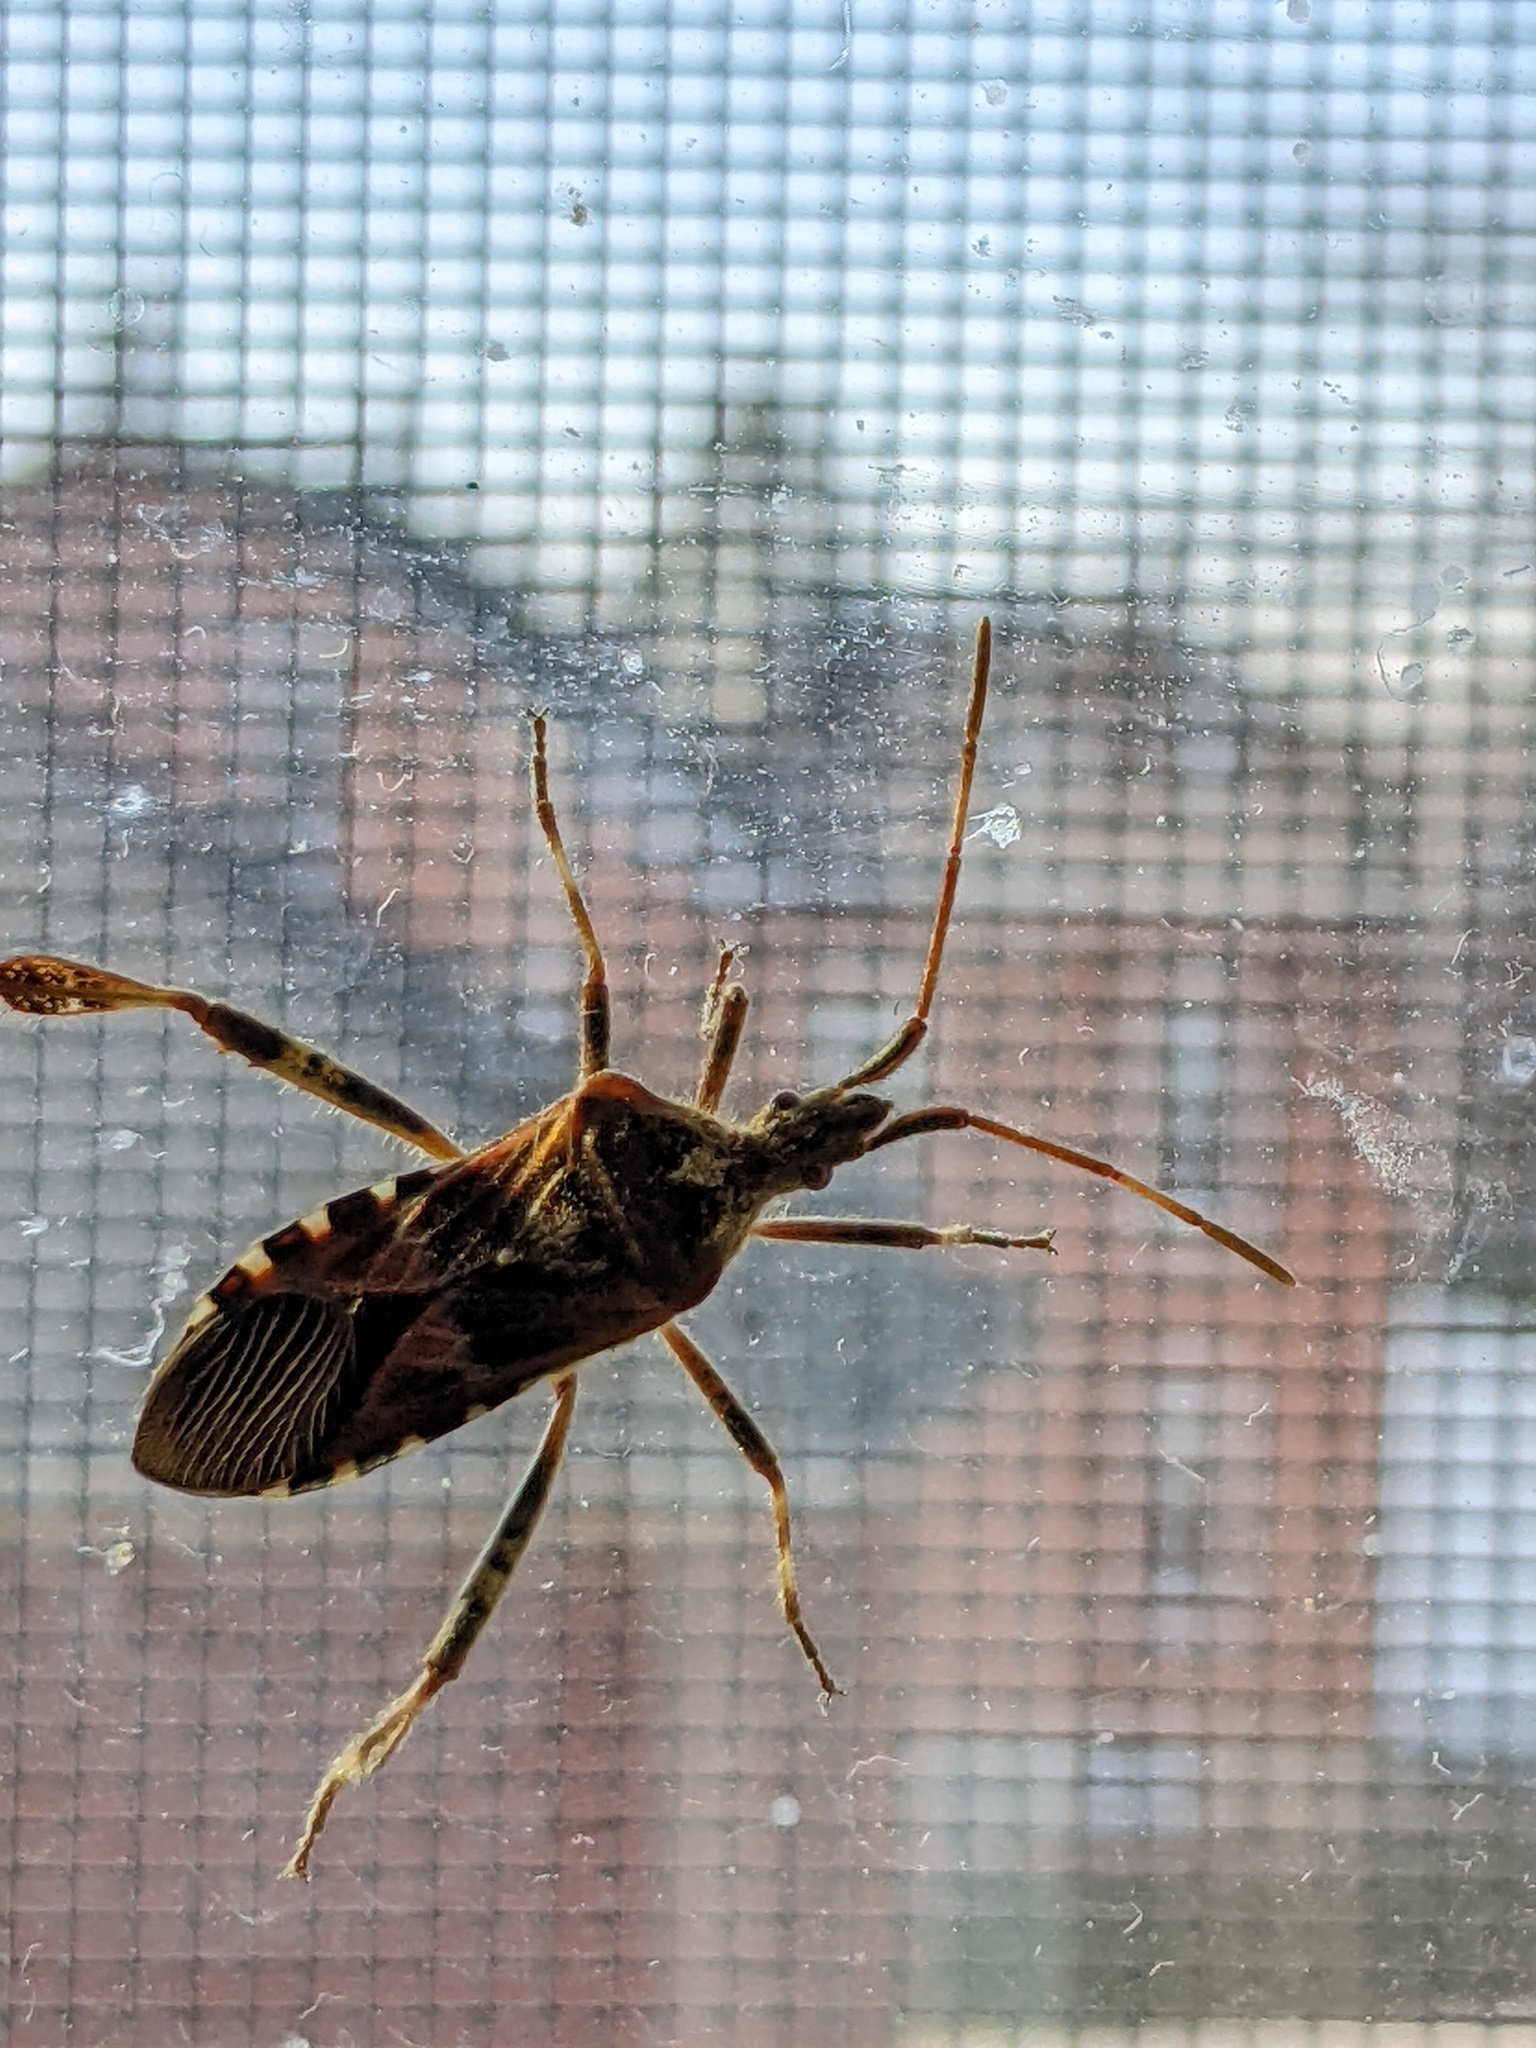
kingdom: Animalia
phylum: Arthropoda
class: Insecta
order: Hemiptera
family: Coreidae
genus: Leptoglossus
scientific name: Leptoglossus occidentalis
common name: Western conifer-seed bug
